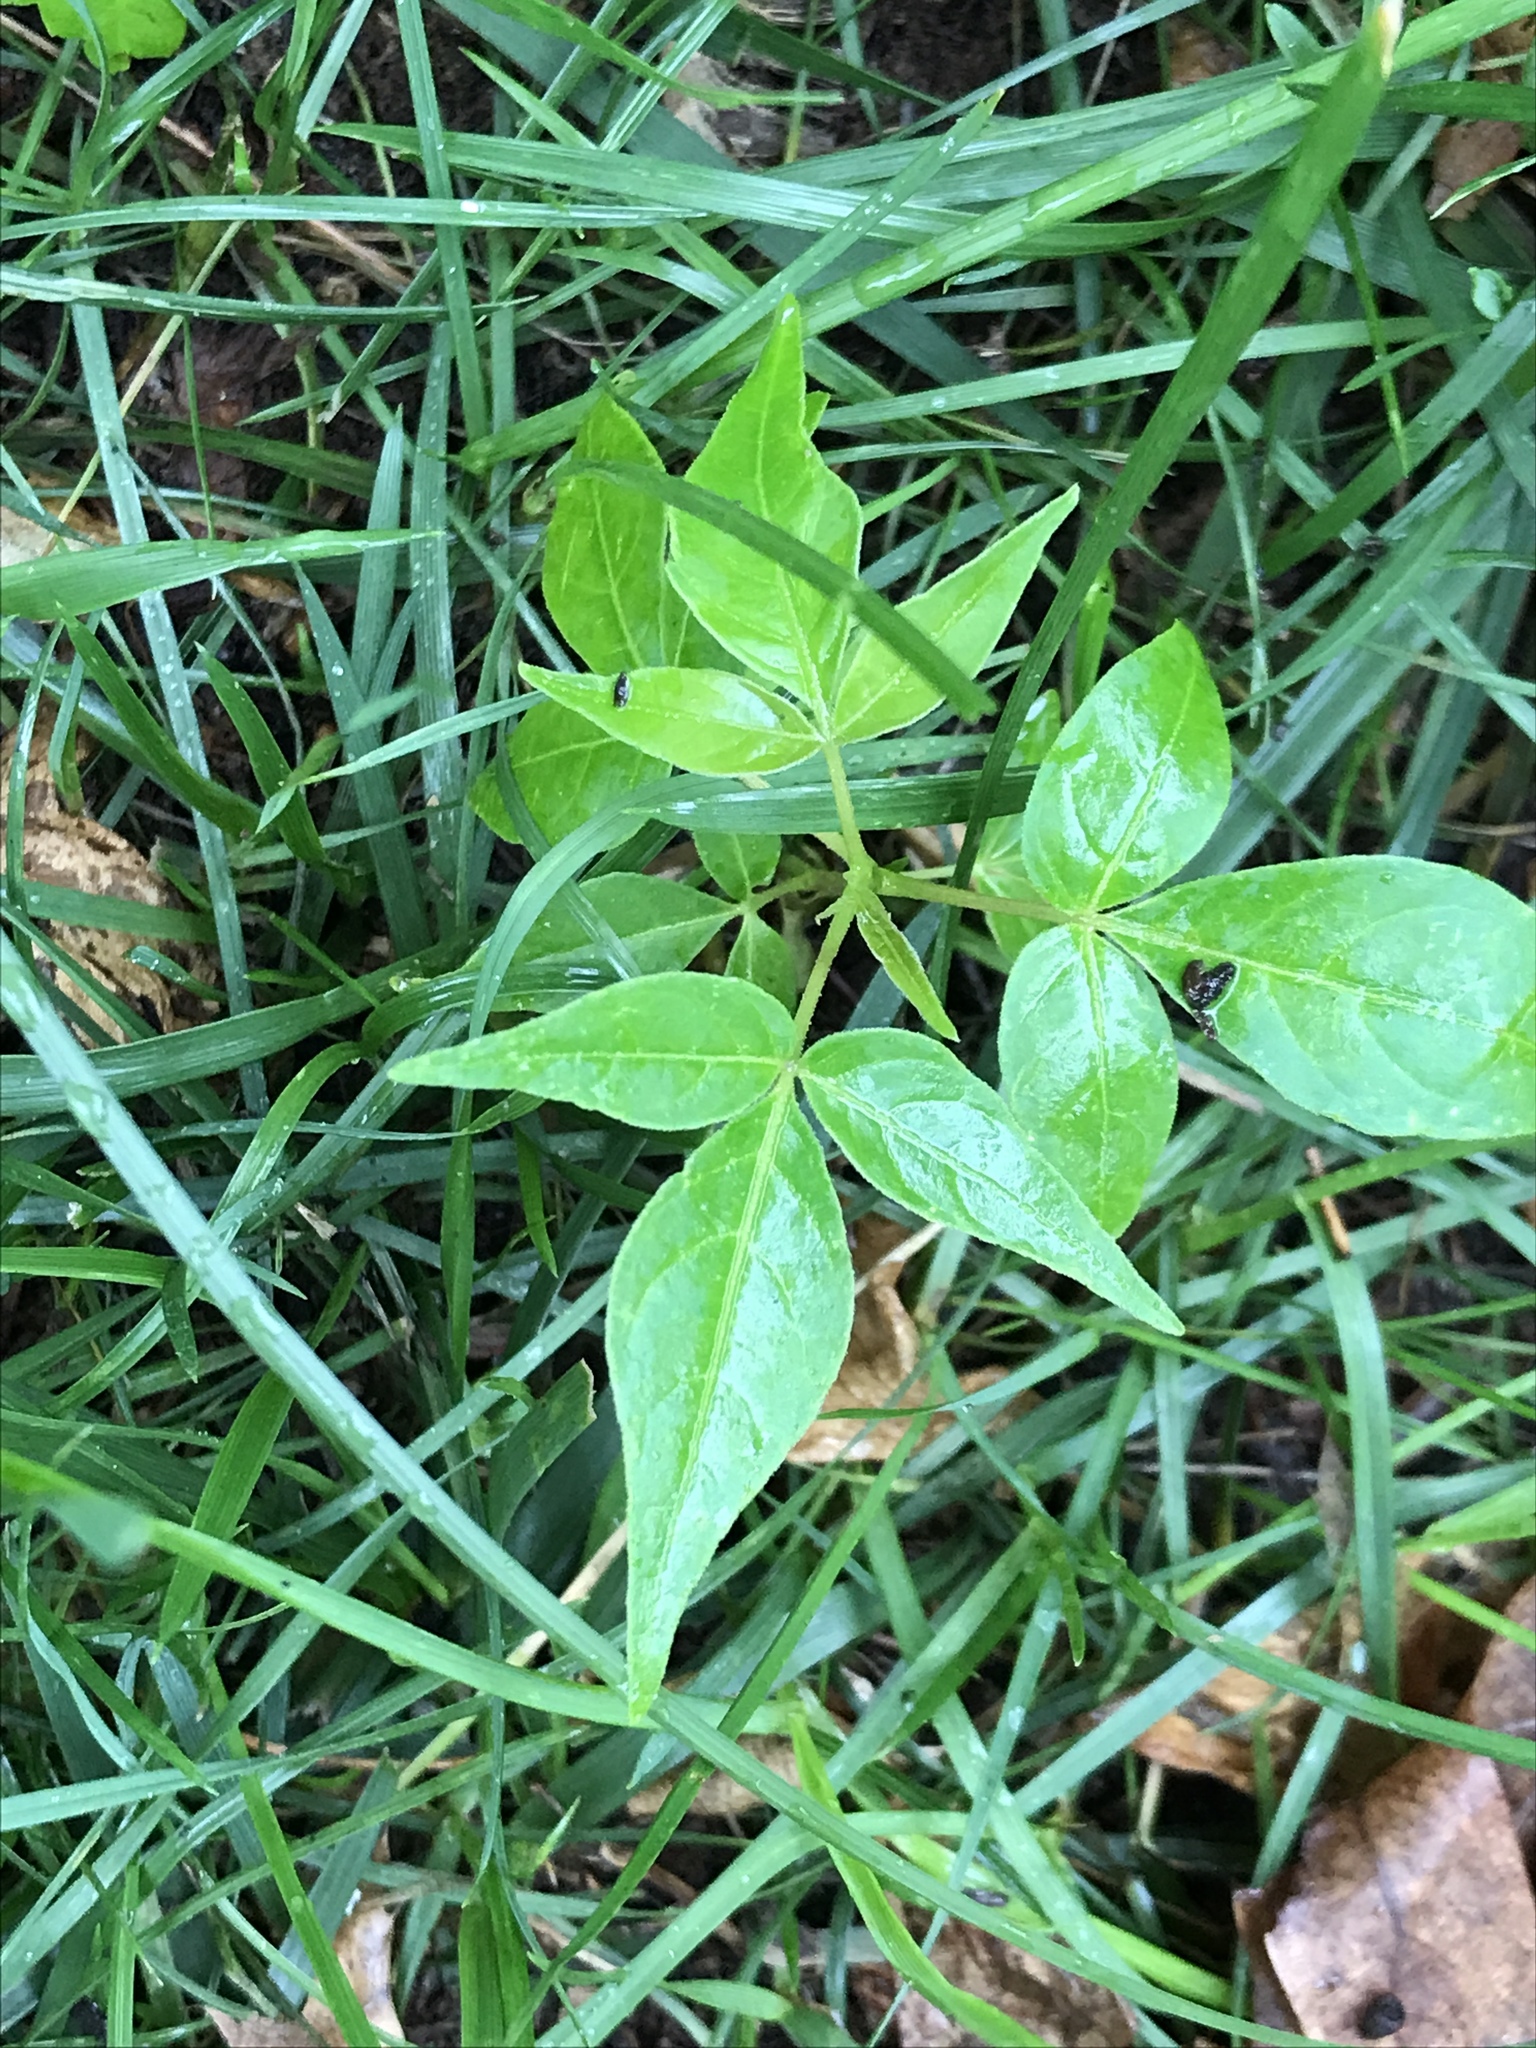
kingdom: Plantae
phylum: Tracheophyta
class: Magnoliopsida
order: Sapindales
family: Simaroubaceae
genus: Ailanthus
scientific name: Ailanthus altissima
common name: Tree-of-heaven
